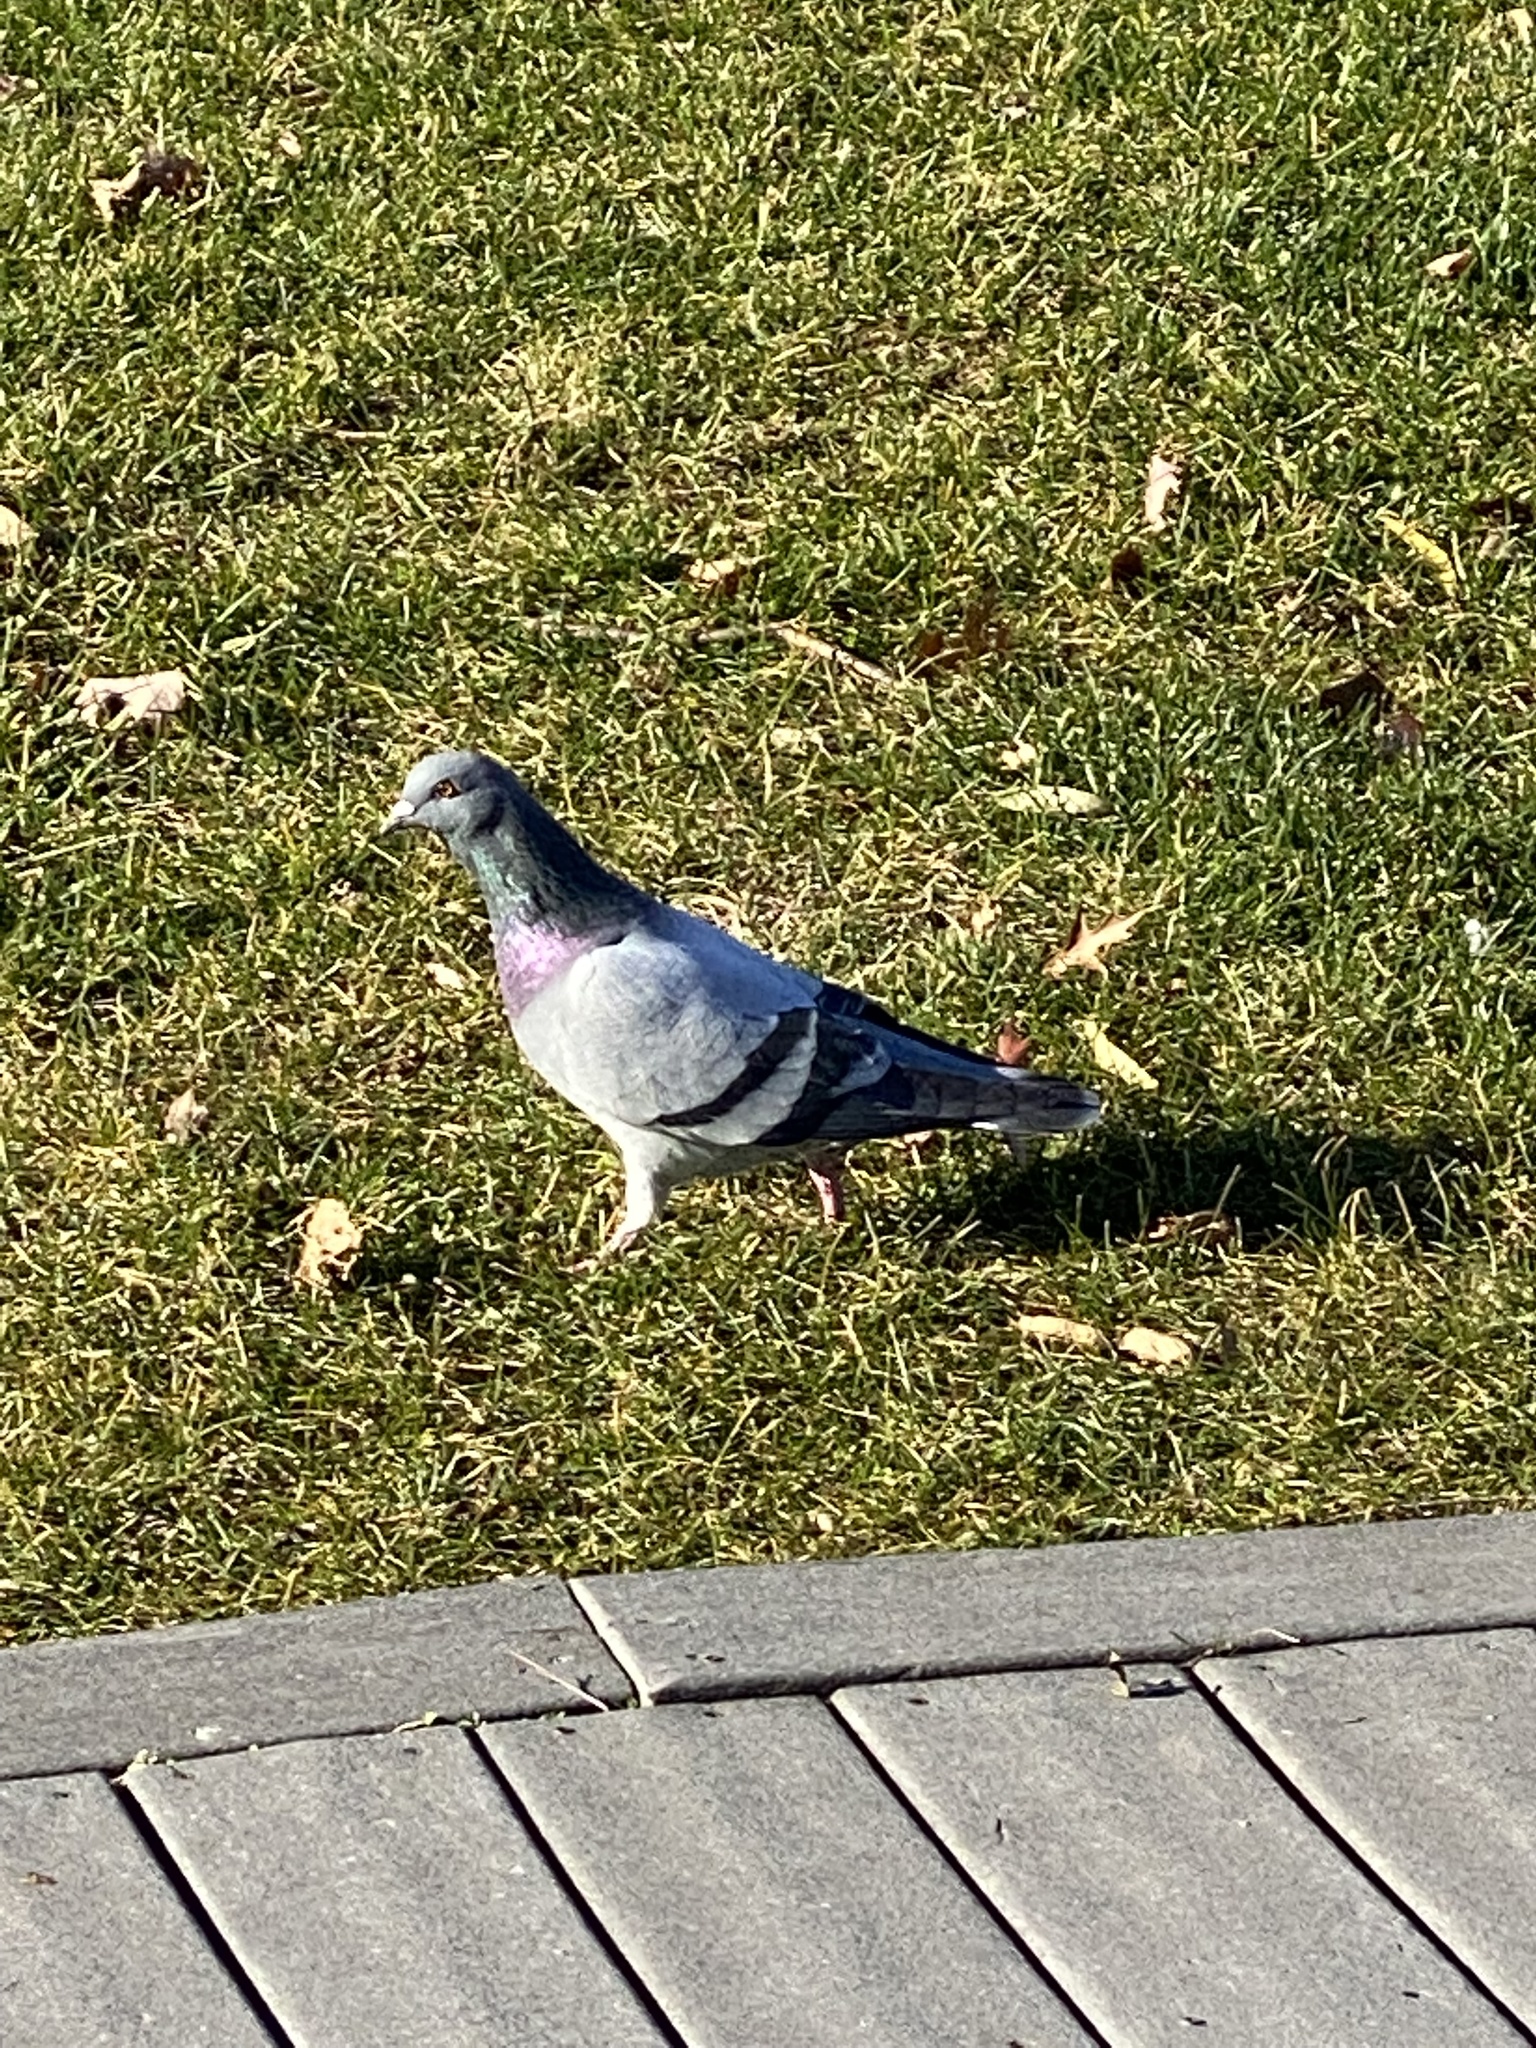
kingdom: Animalia
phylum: Chordata
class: Aves
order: Columbiformes
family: Columbidae
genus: Columba
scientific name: Columba livia
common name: Rock pigeon
